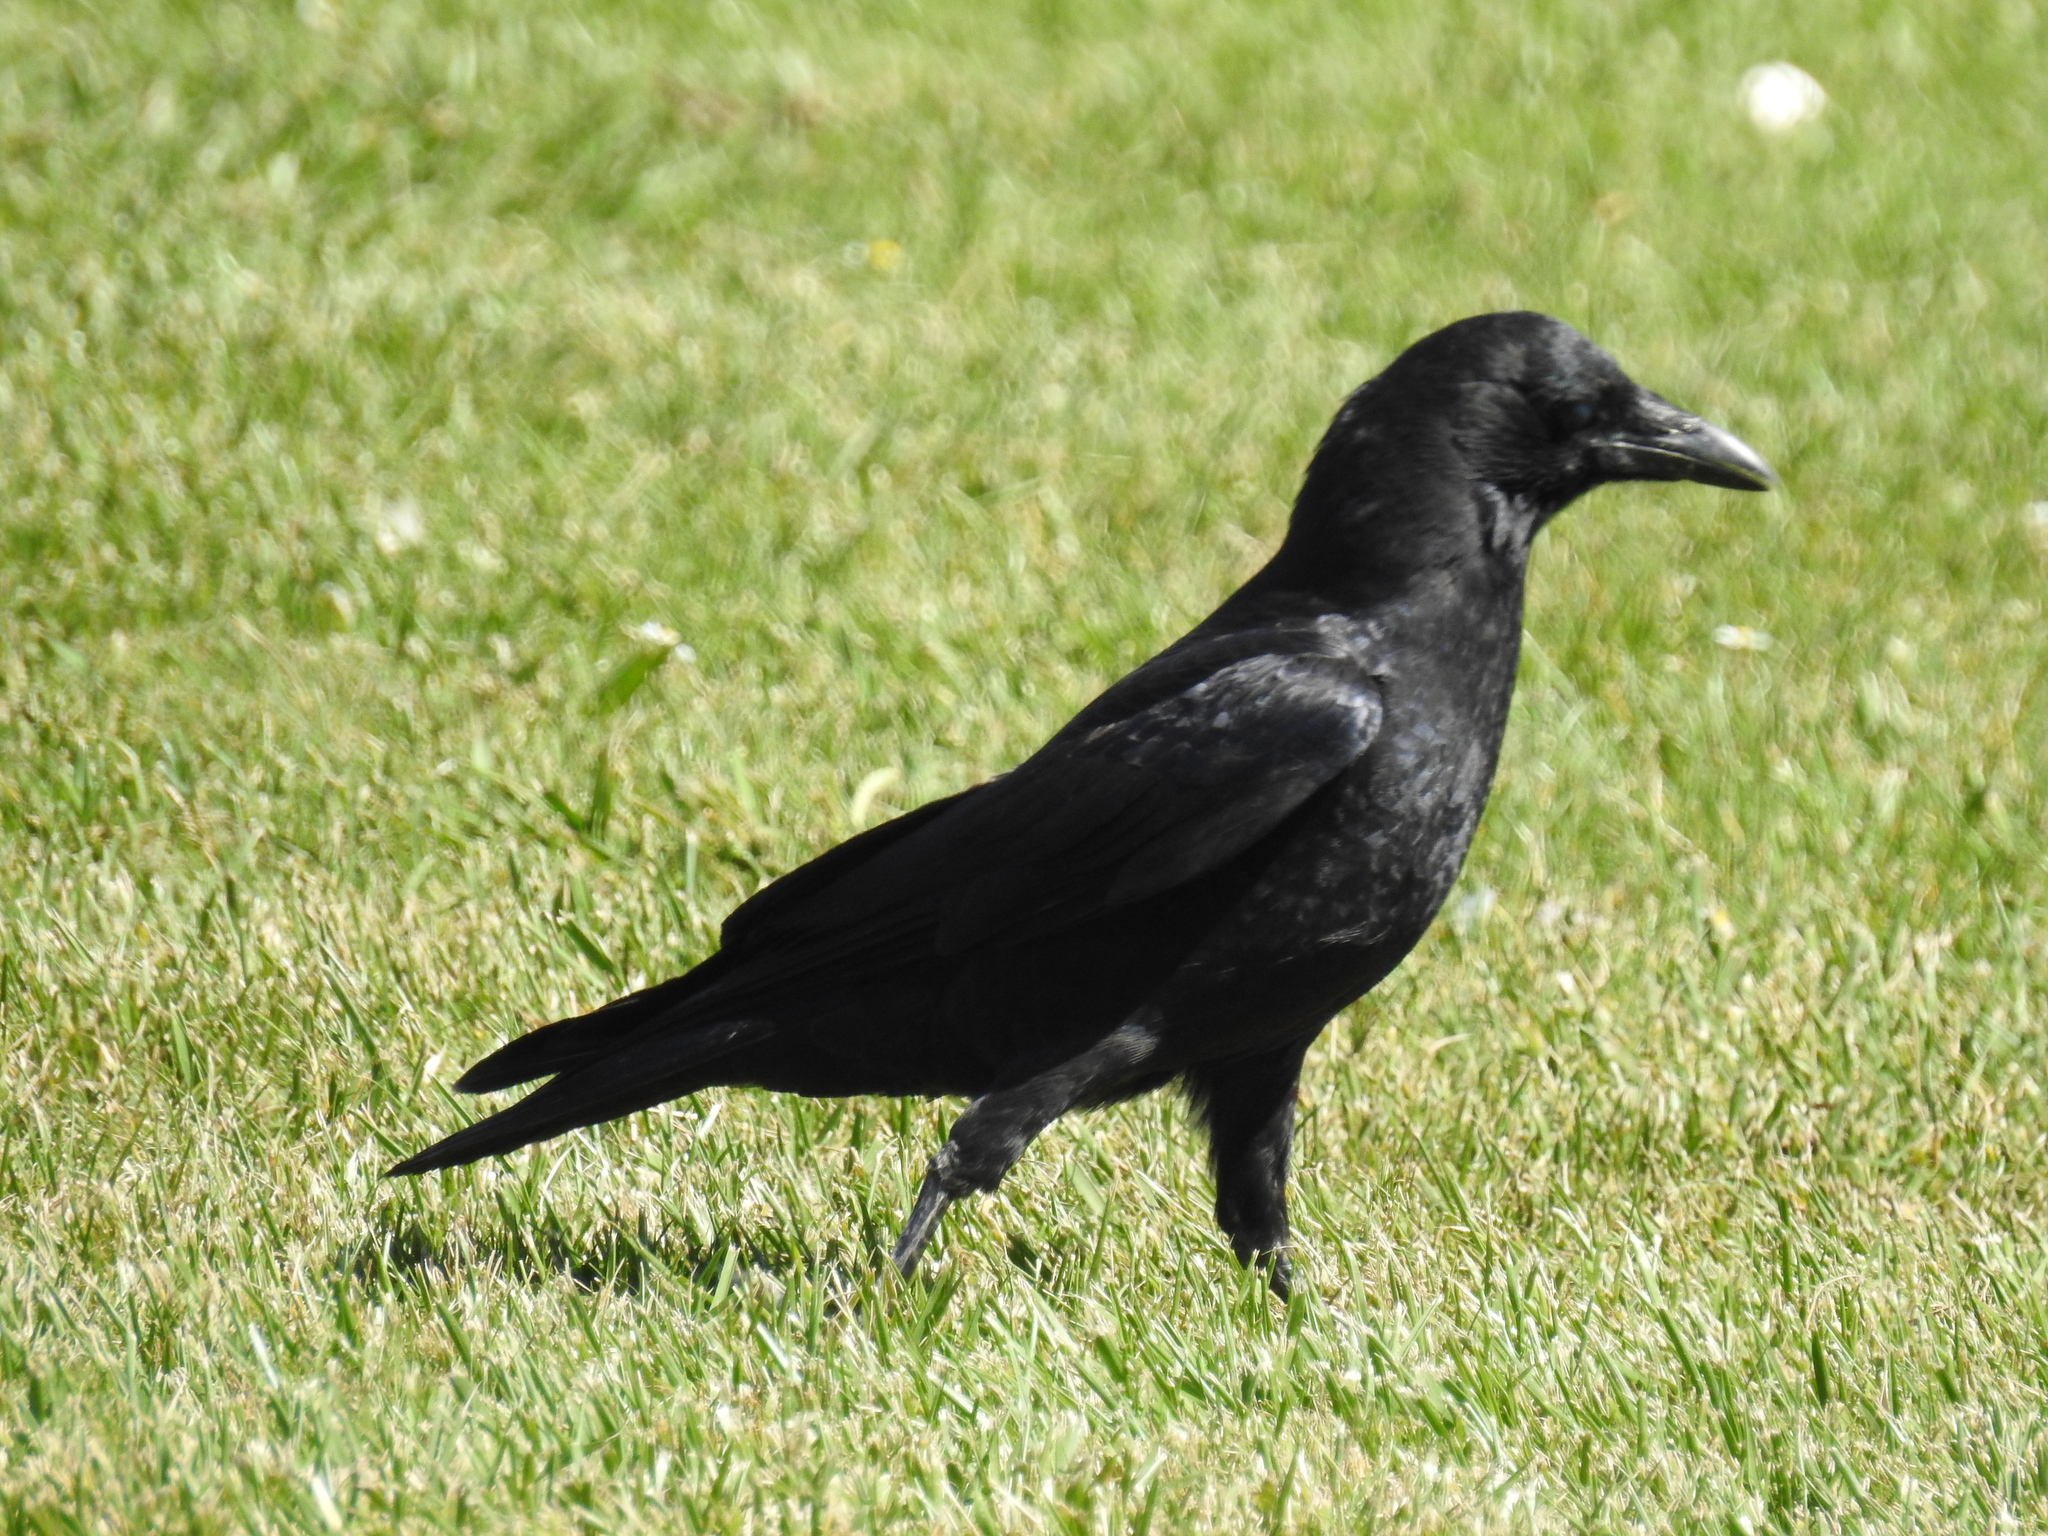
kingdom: Animalia
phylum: Chordata
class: Aves
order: Passeriformes
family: Corvidae
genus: Corvus
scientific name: Corvus brachyrhynchos
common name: American crow
